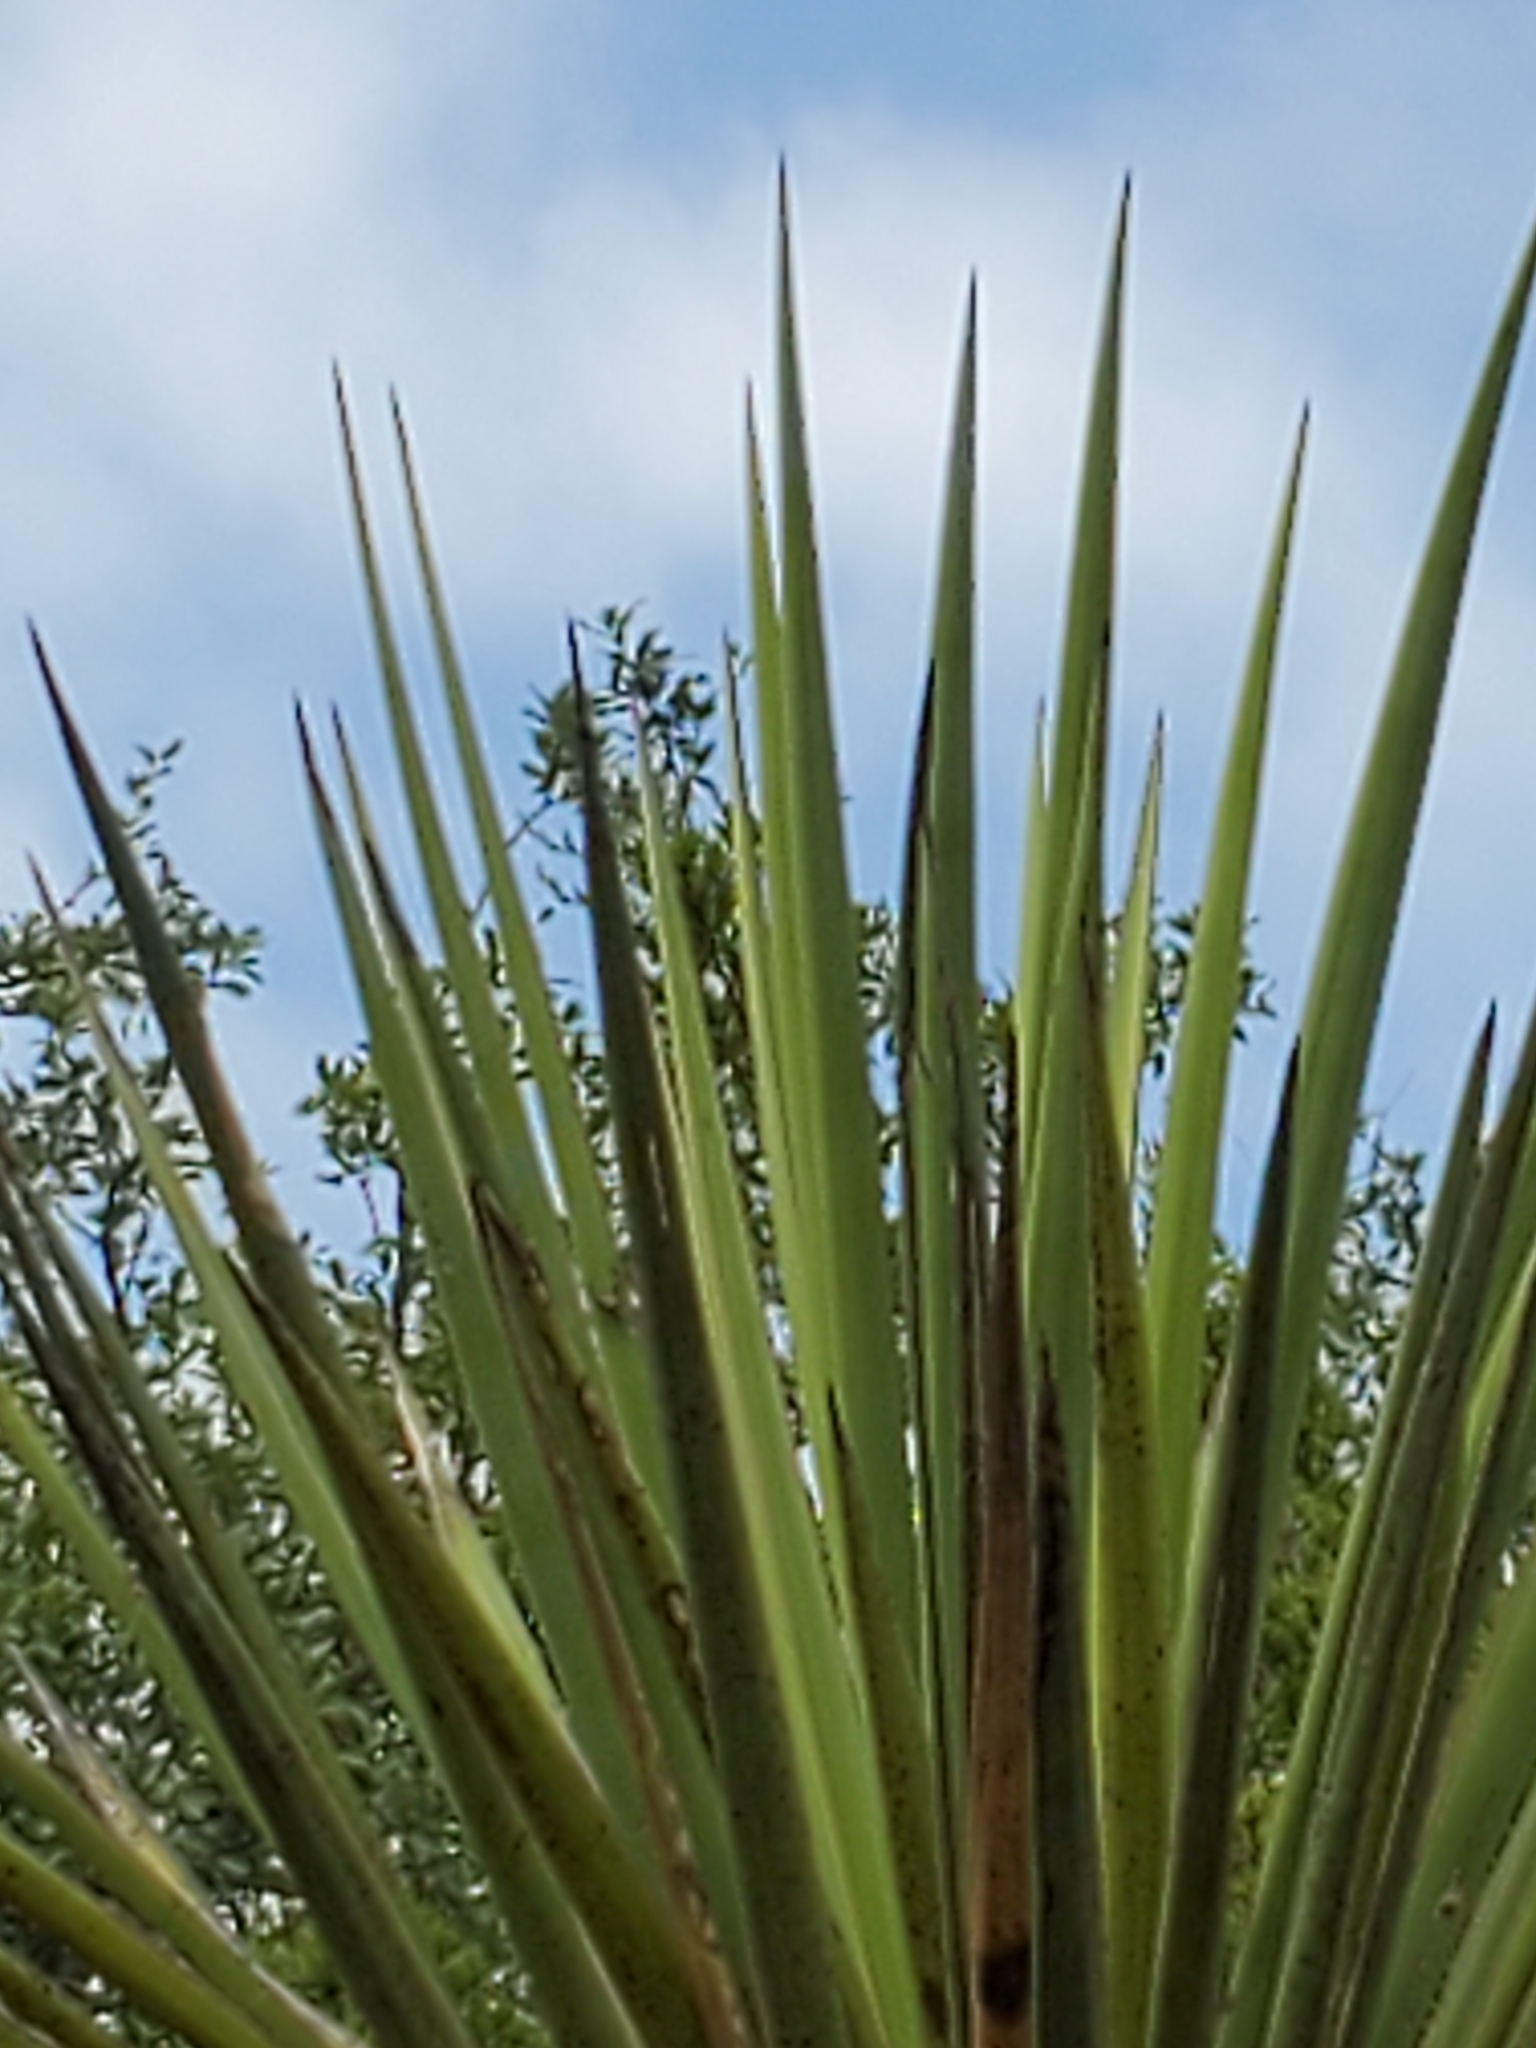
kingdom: Plantae
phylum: Tracheophyta
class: Liliopsida
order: Asparagales
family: Asparagaceae
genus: Yucca
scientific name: Yucca treculiana
